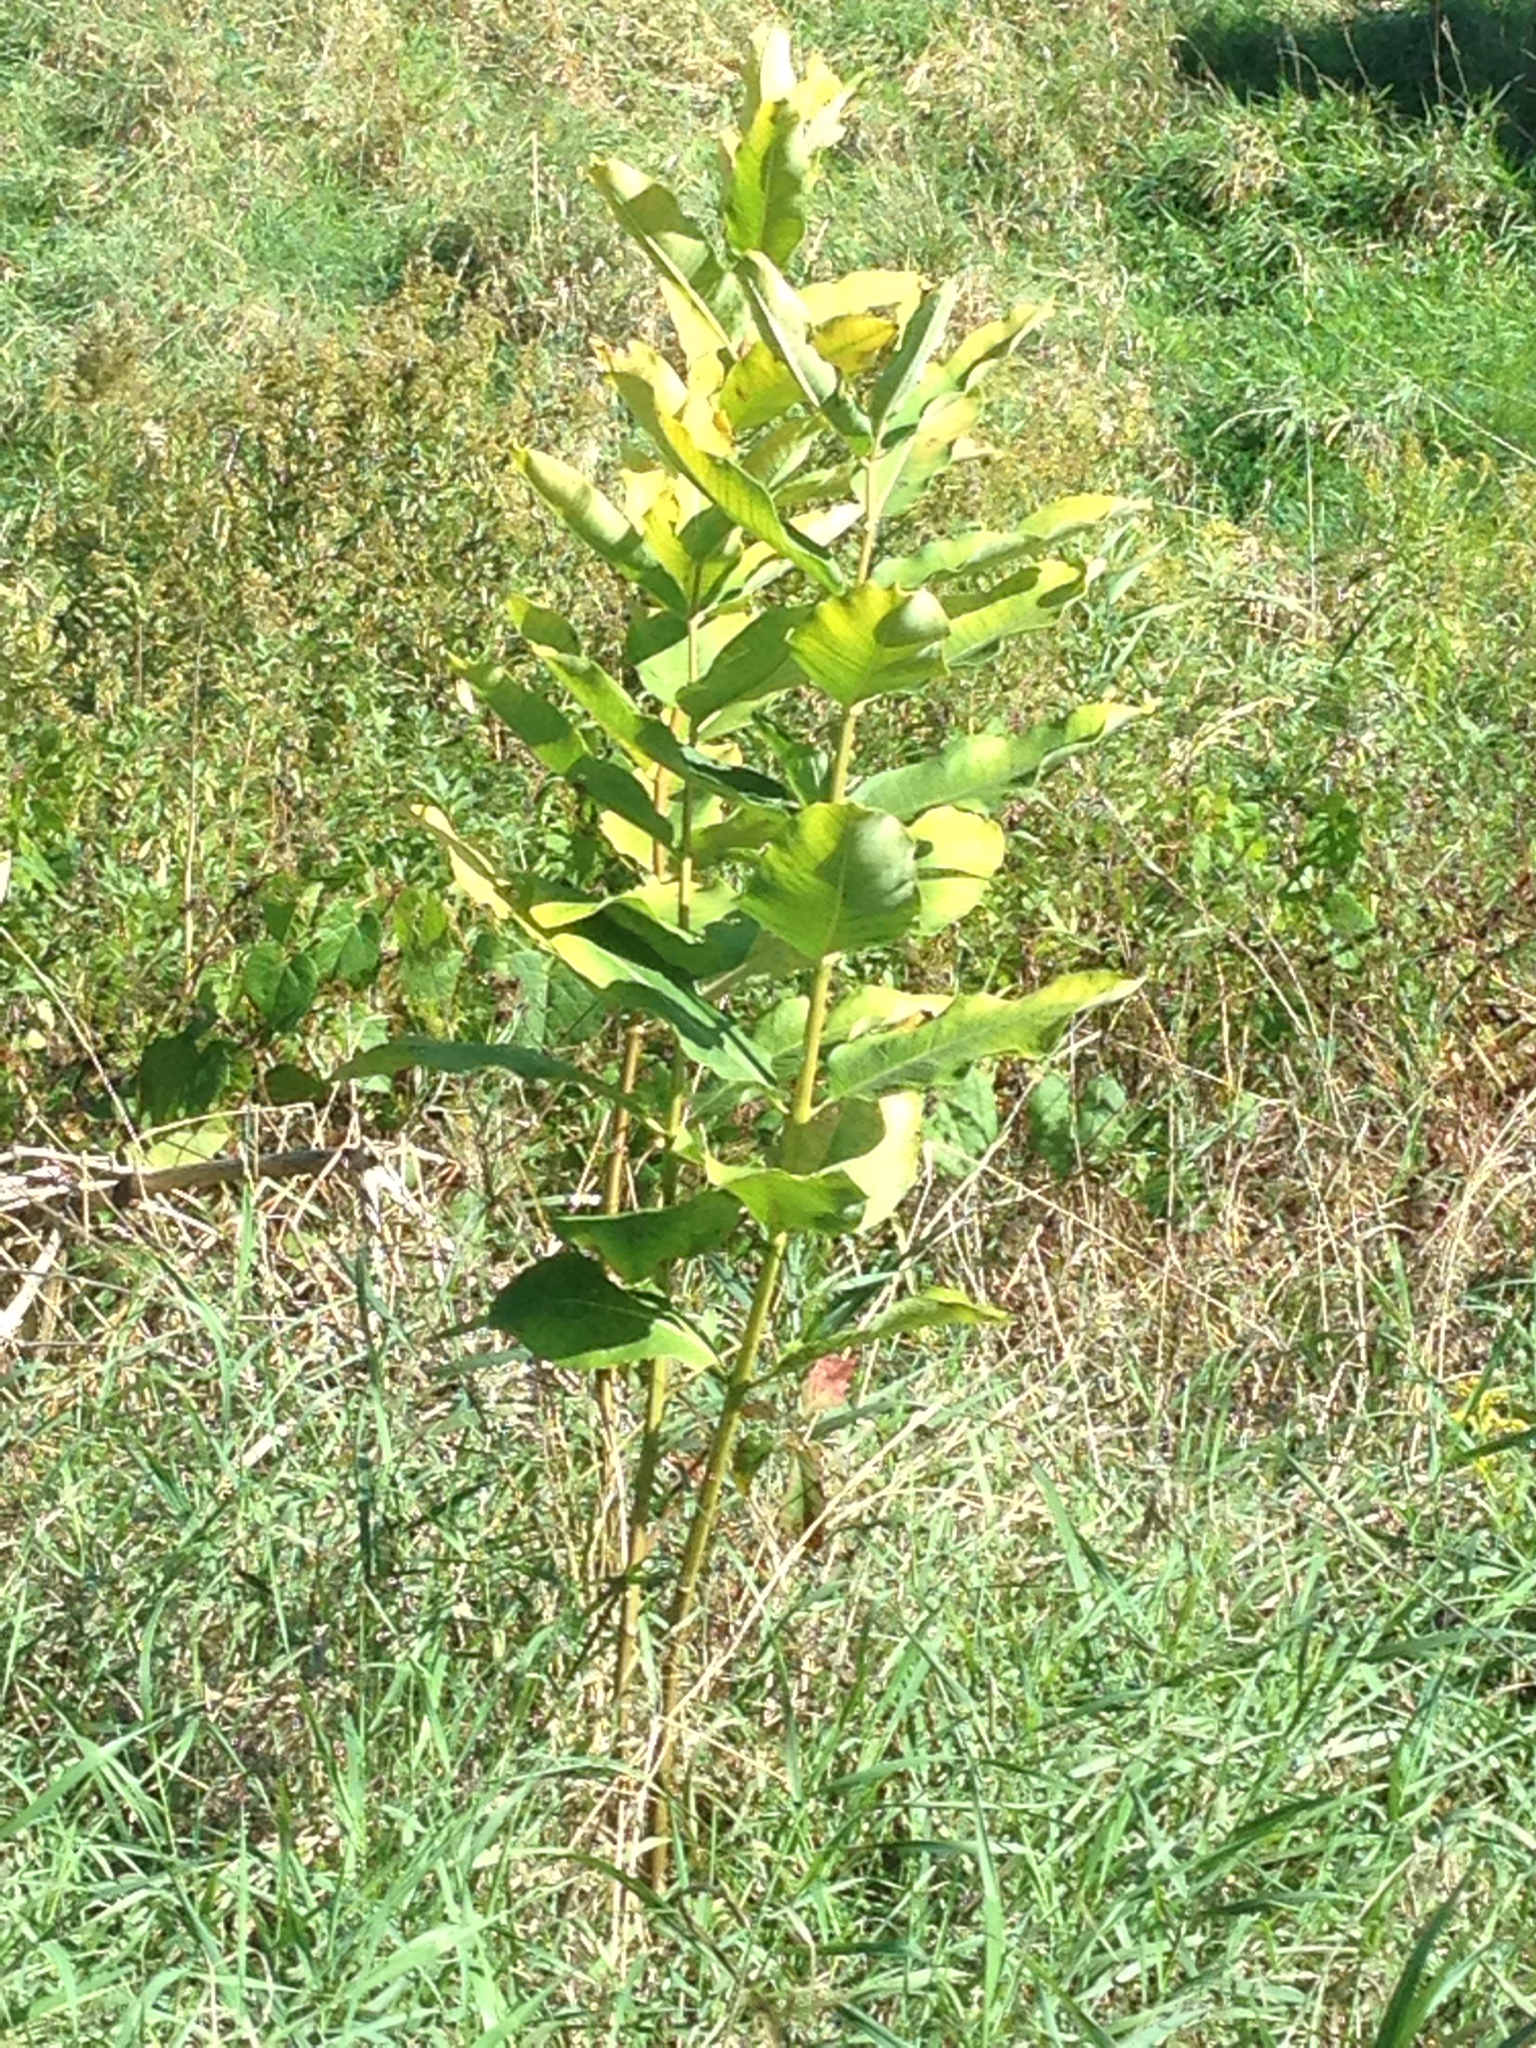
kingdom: Plantae
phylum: Tracheophyta
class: Magnoliopsida
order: Gentianales
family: Apocynaceae
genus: Asclepias
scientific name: Asclepias syriaca
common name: Common milkweed
